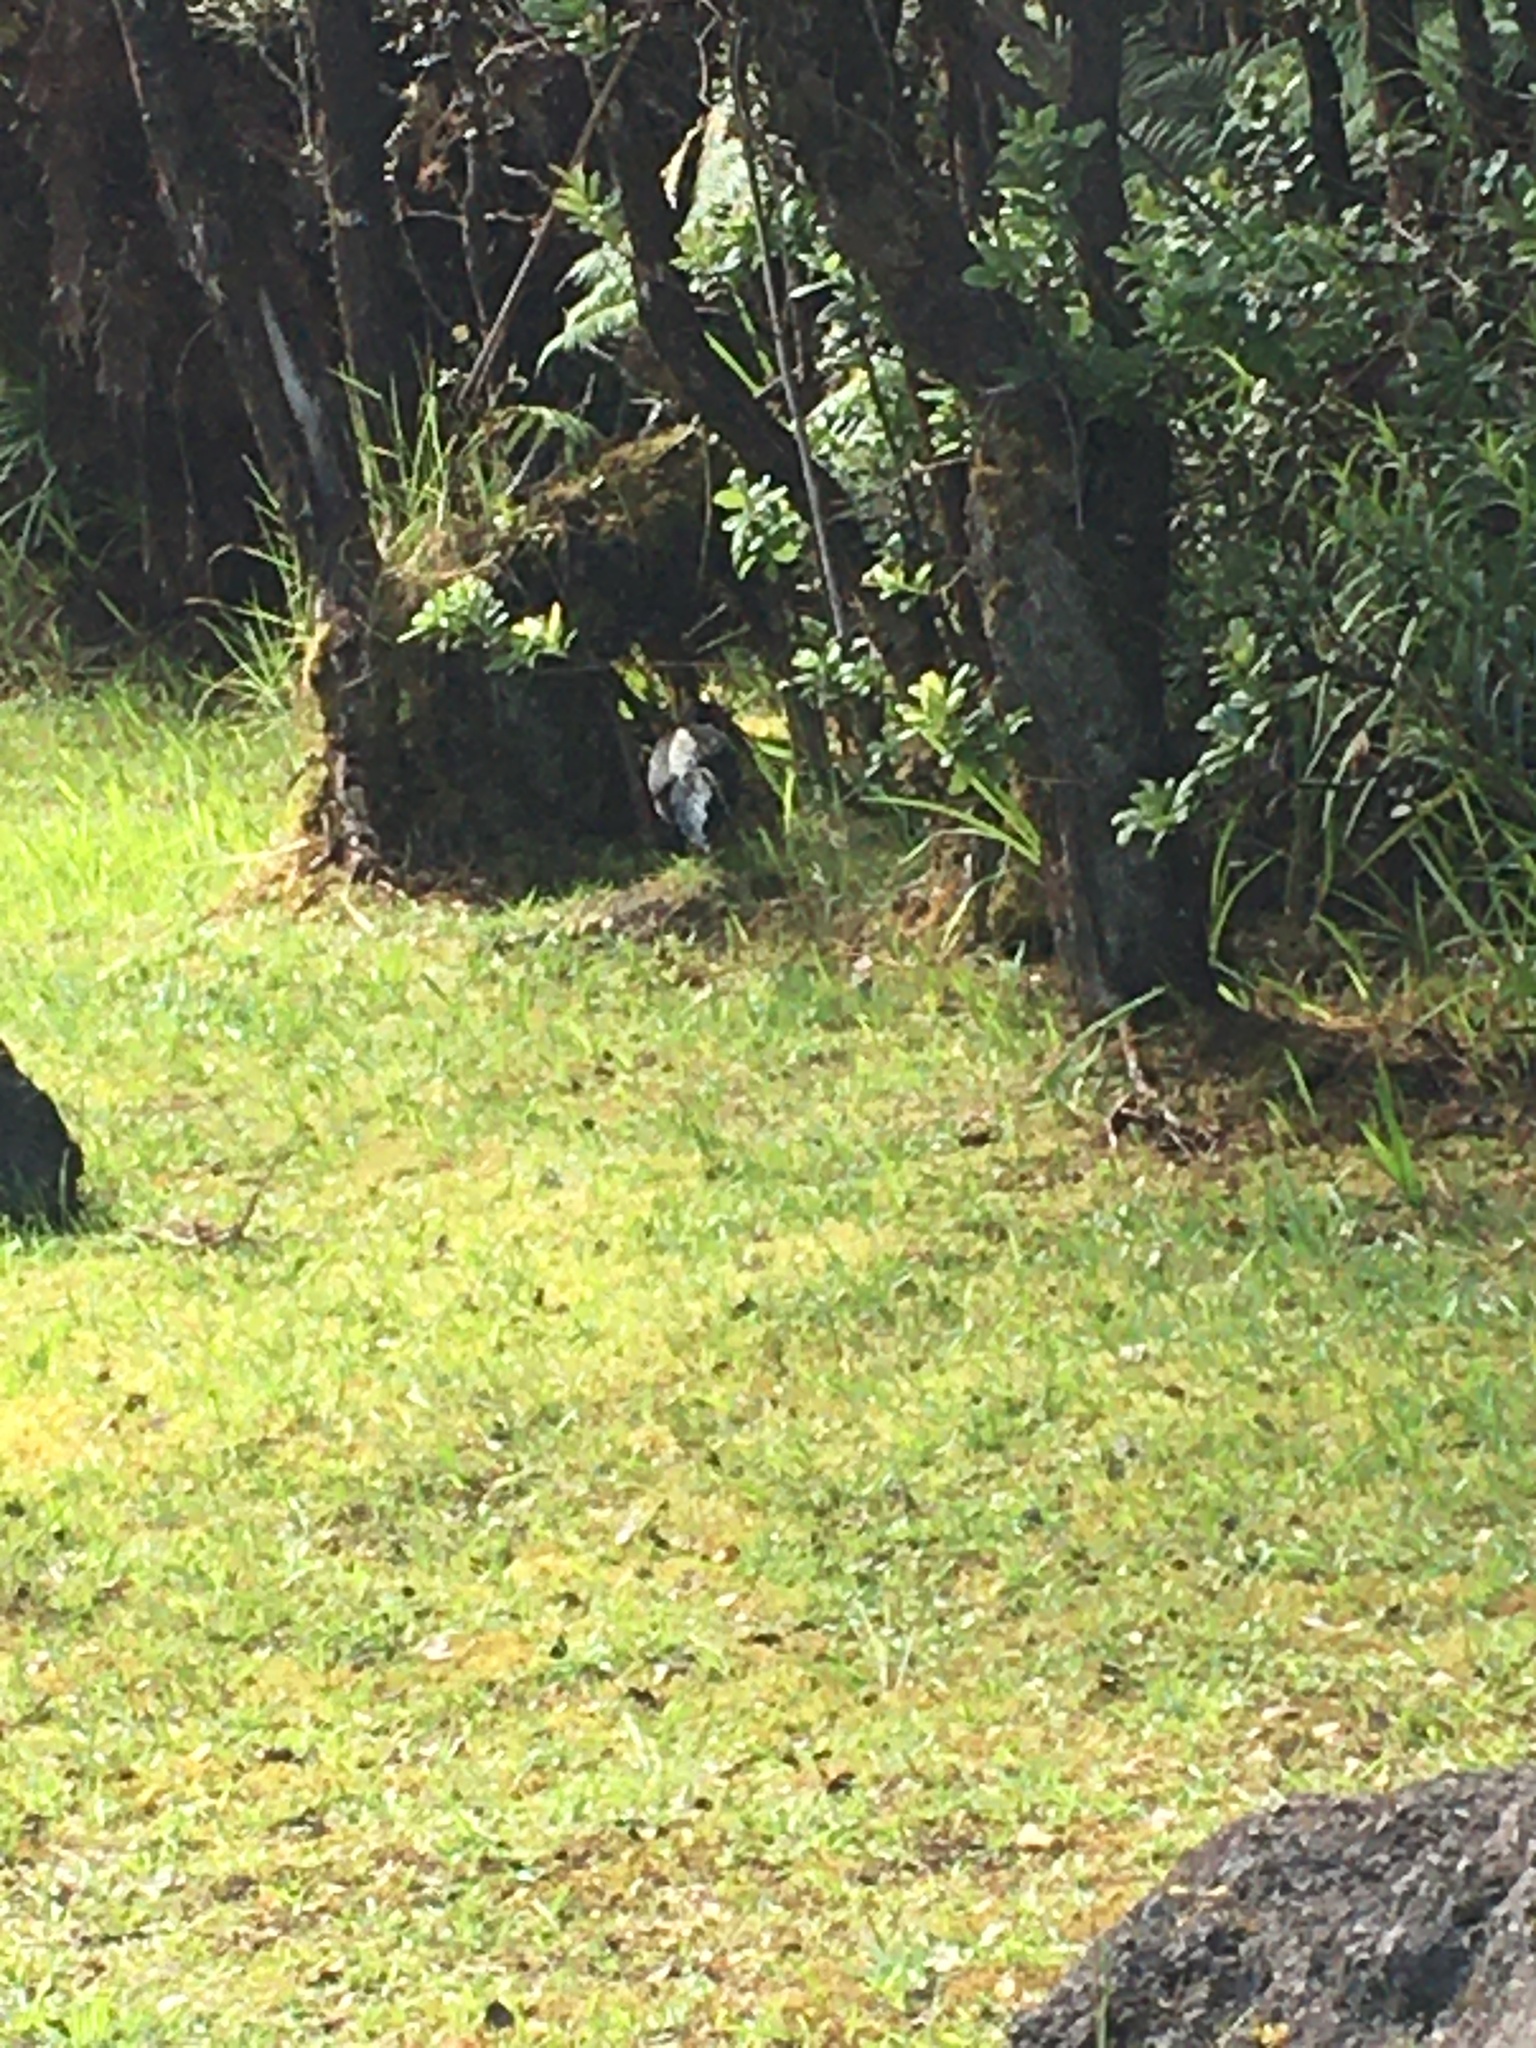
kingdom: Animalia
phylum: Chordata
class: Aves
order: Galliformes
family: Phasianidae
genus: Lophura
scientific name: Lophura leucomelanos
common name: Kalij pheasant
